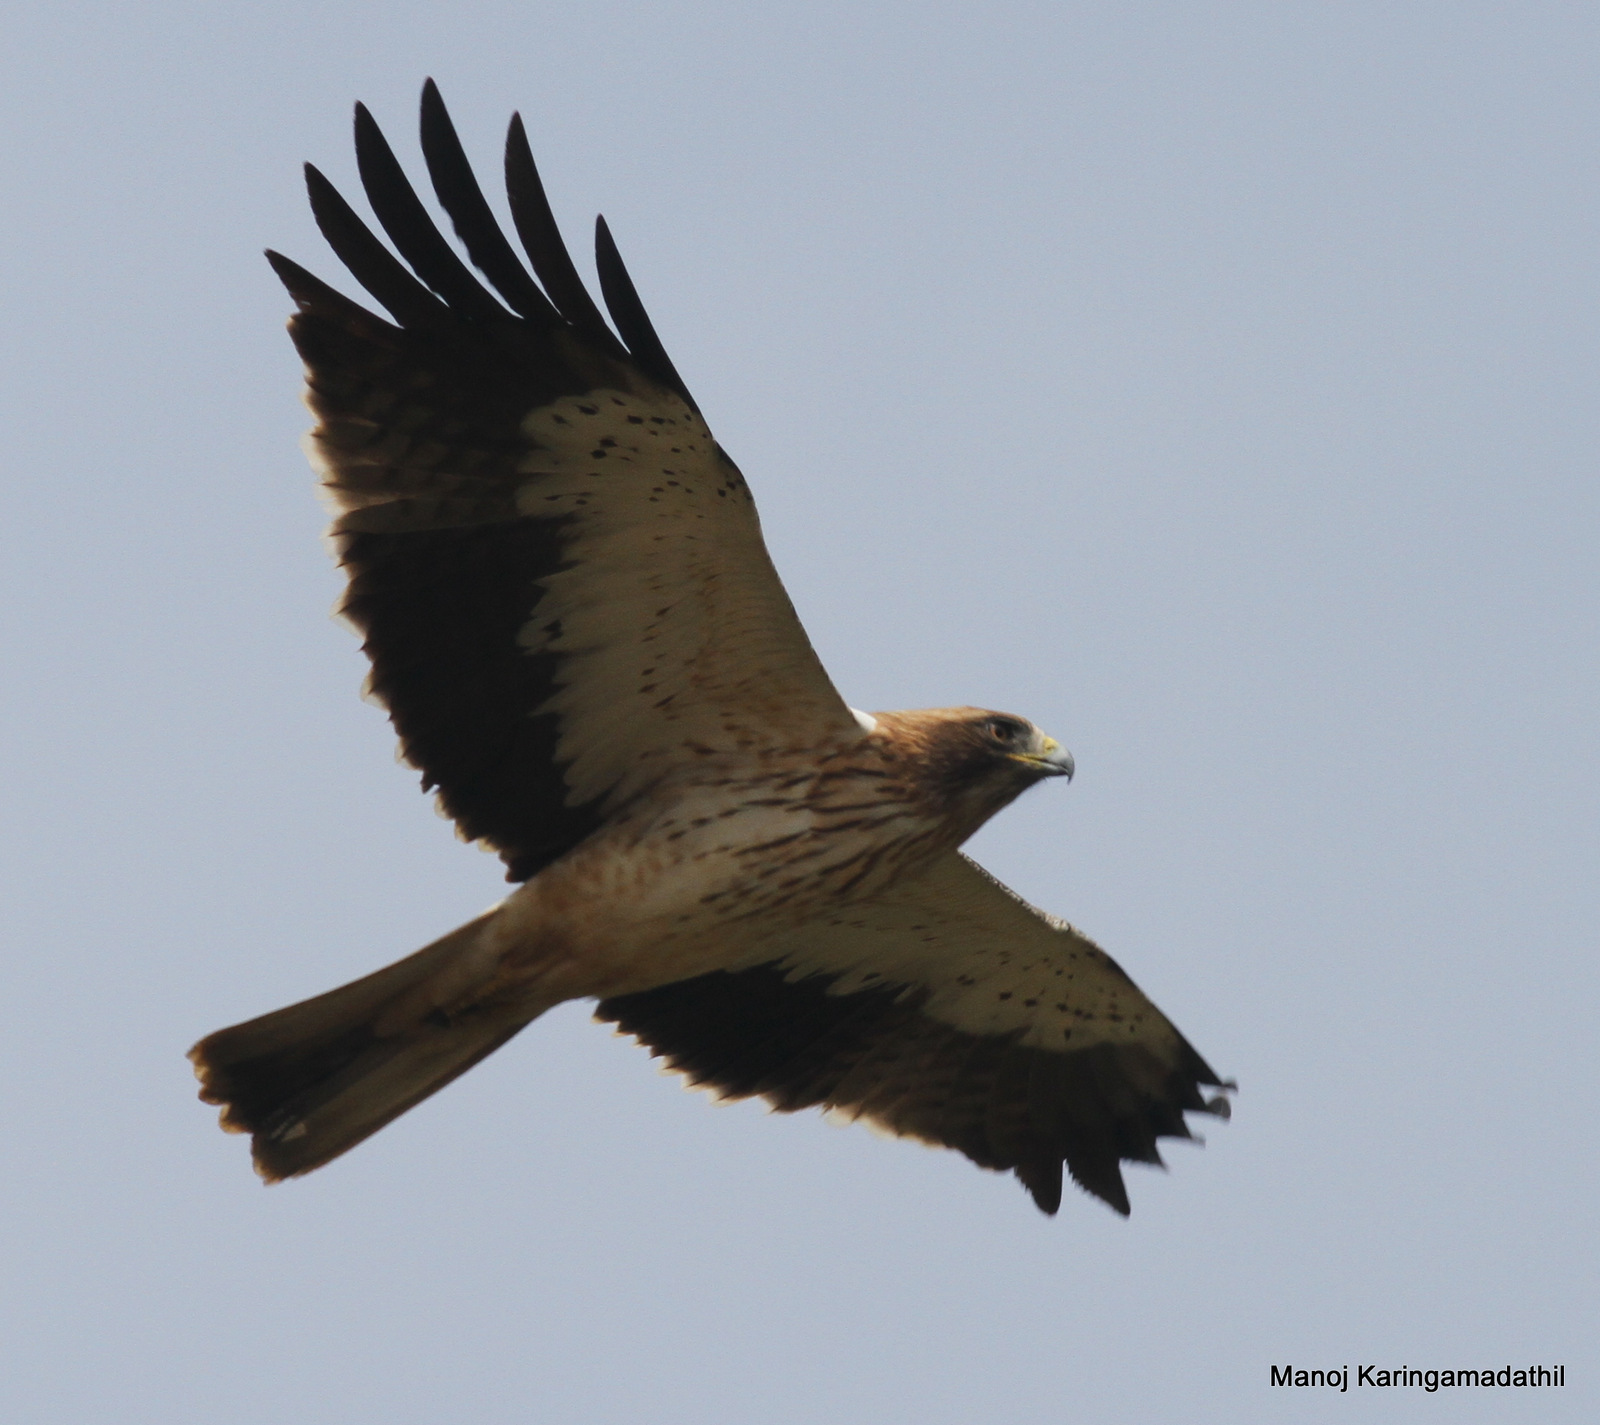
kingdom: Animalia
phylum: Chordata
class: Aves
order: Accipitriformes
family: Accipitridae
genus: Hieraaetus
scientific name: Hieraaetus pennatus
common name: Booted eagle
